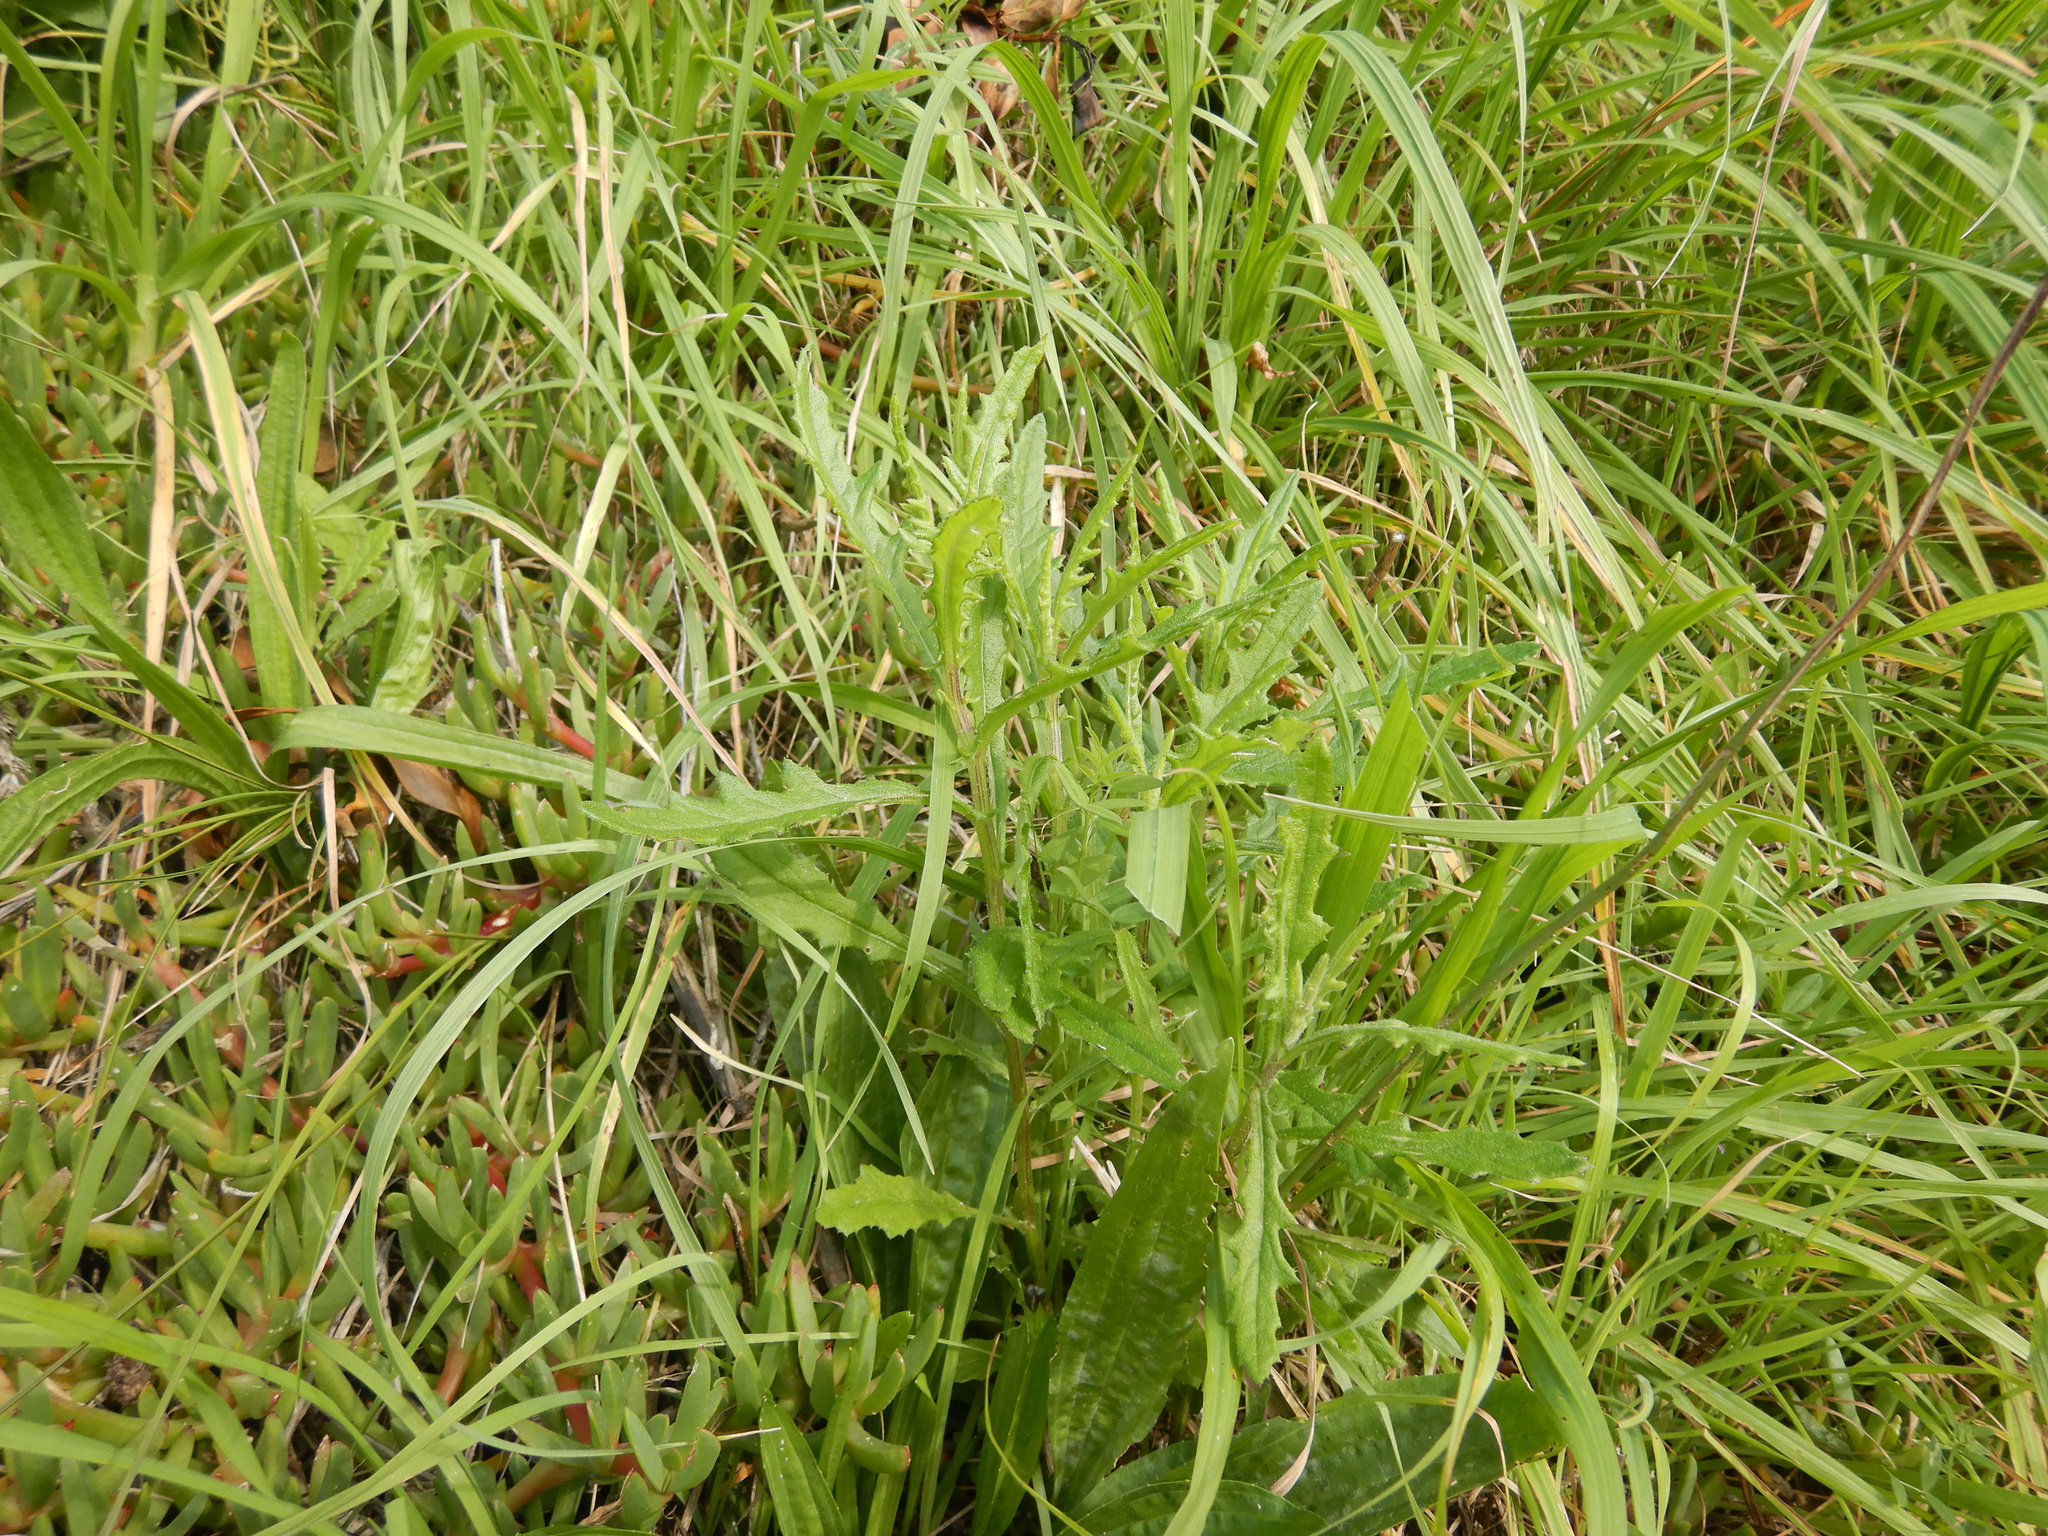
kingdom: Plantae
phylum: Tracheophyta
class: Magnoliopsida
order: Asterales
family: Asteraceae
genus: Senecio
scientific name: Senecio hispidulus
